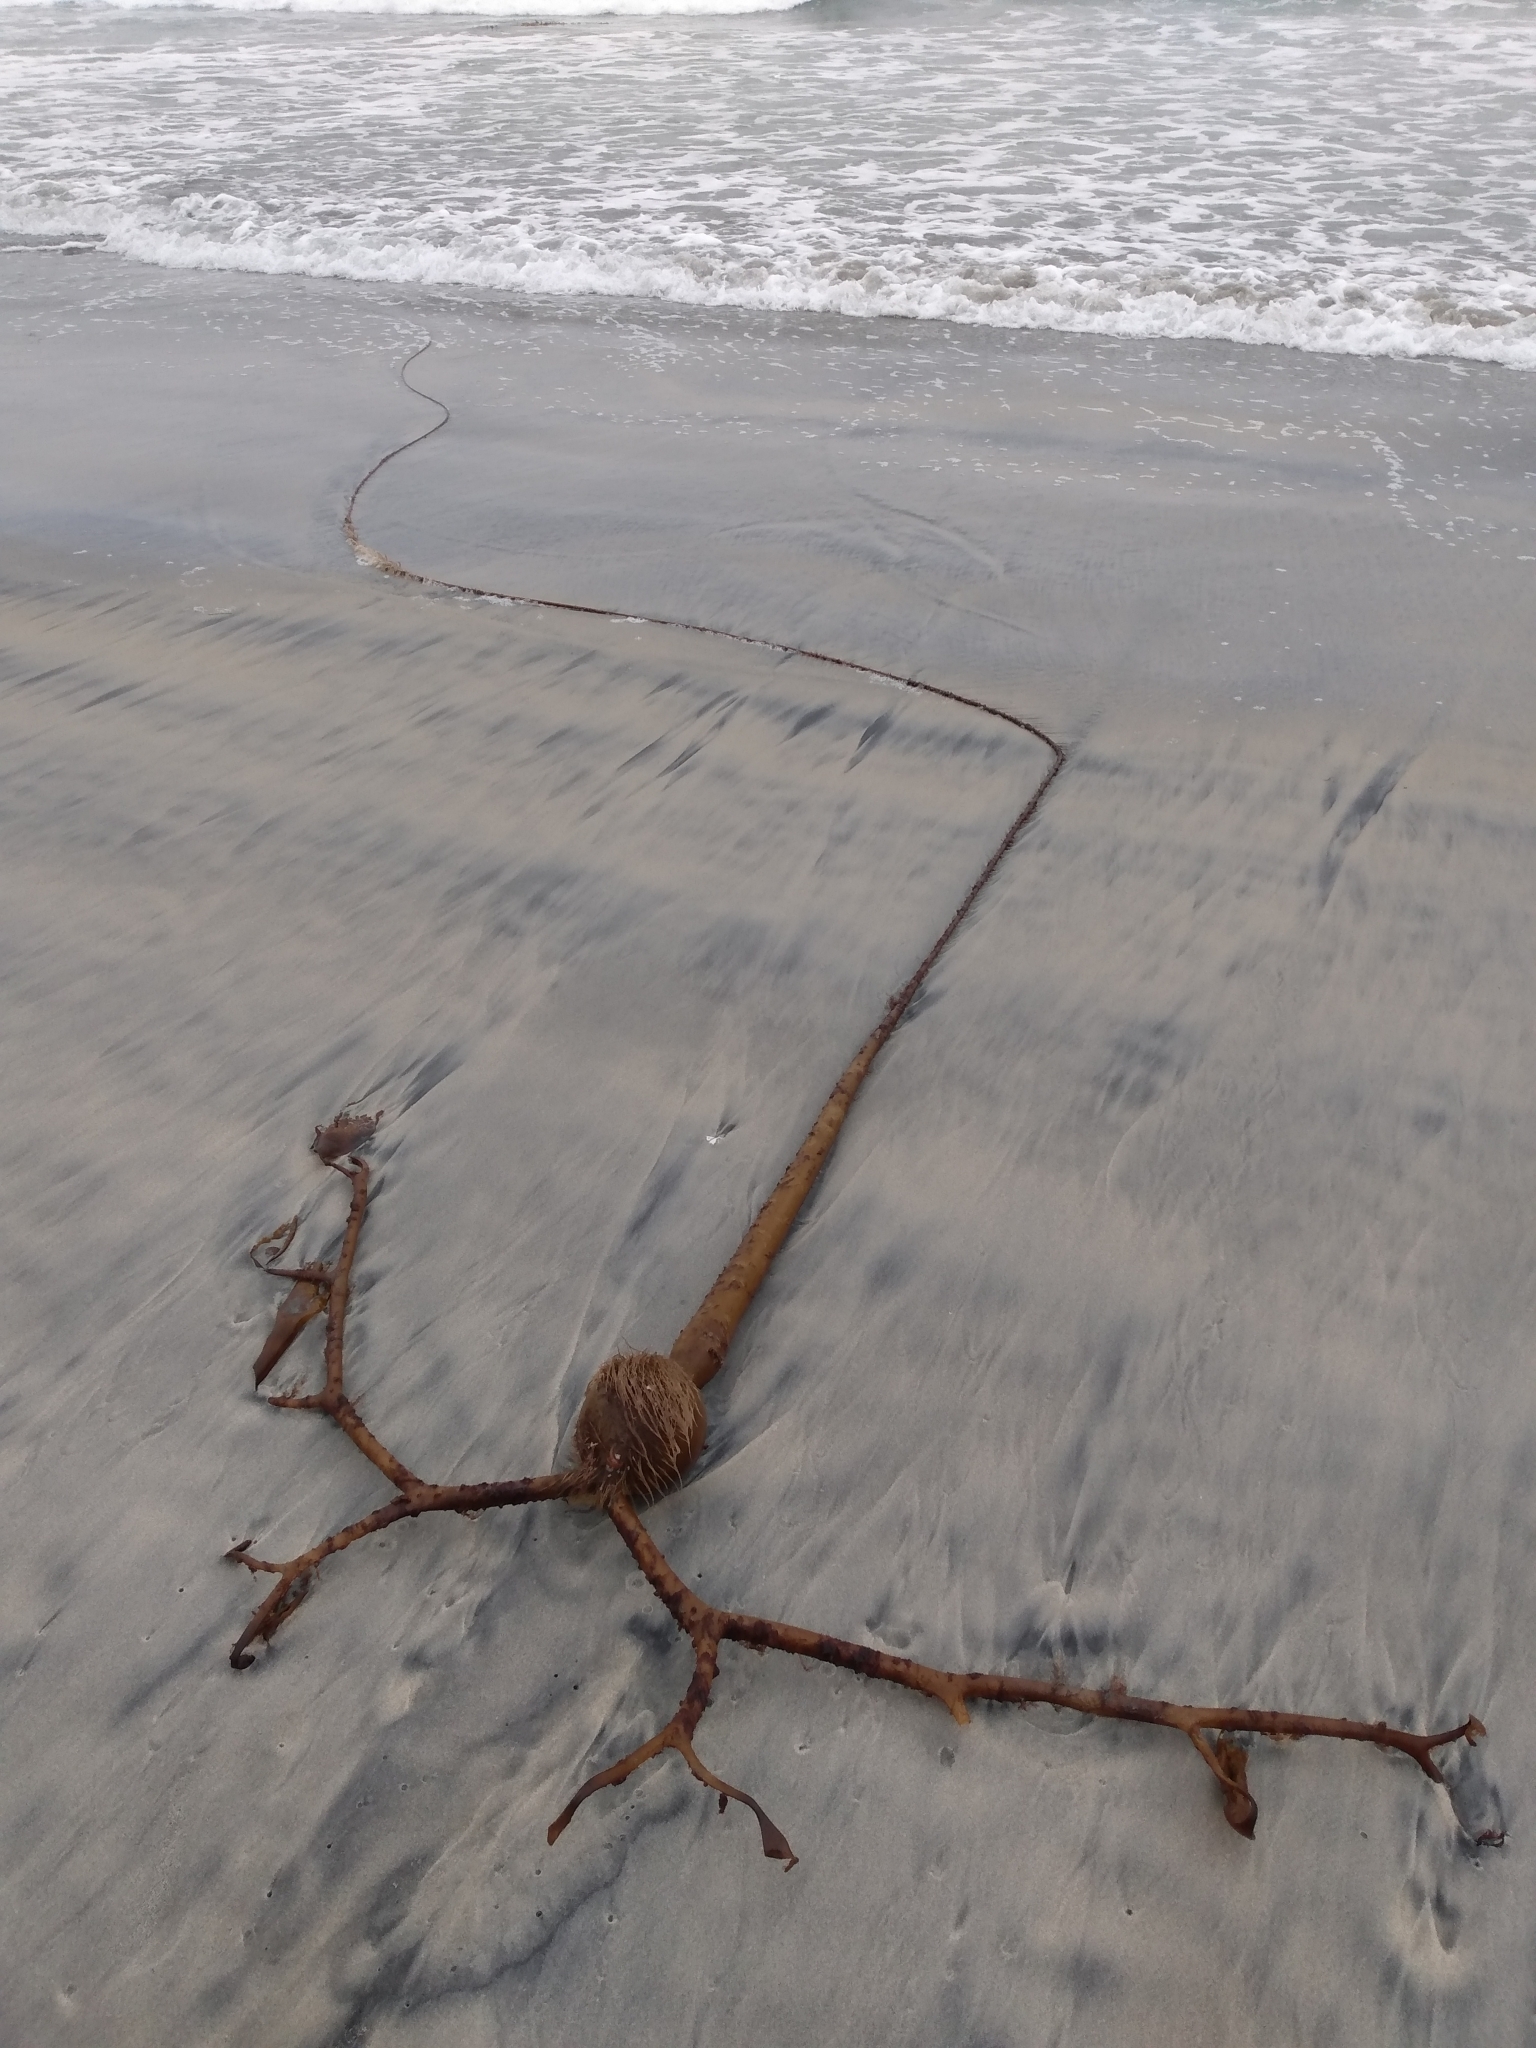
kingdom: Chromista
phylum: Ochrophyta
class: Phaeophyceae
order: Laminariales
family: Laminariaceae
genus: Pelagophycus
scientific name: Pelagophycus porra
